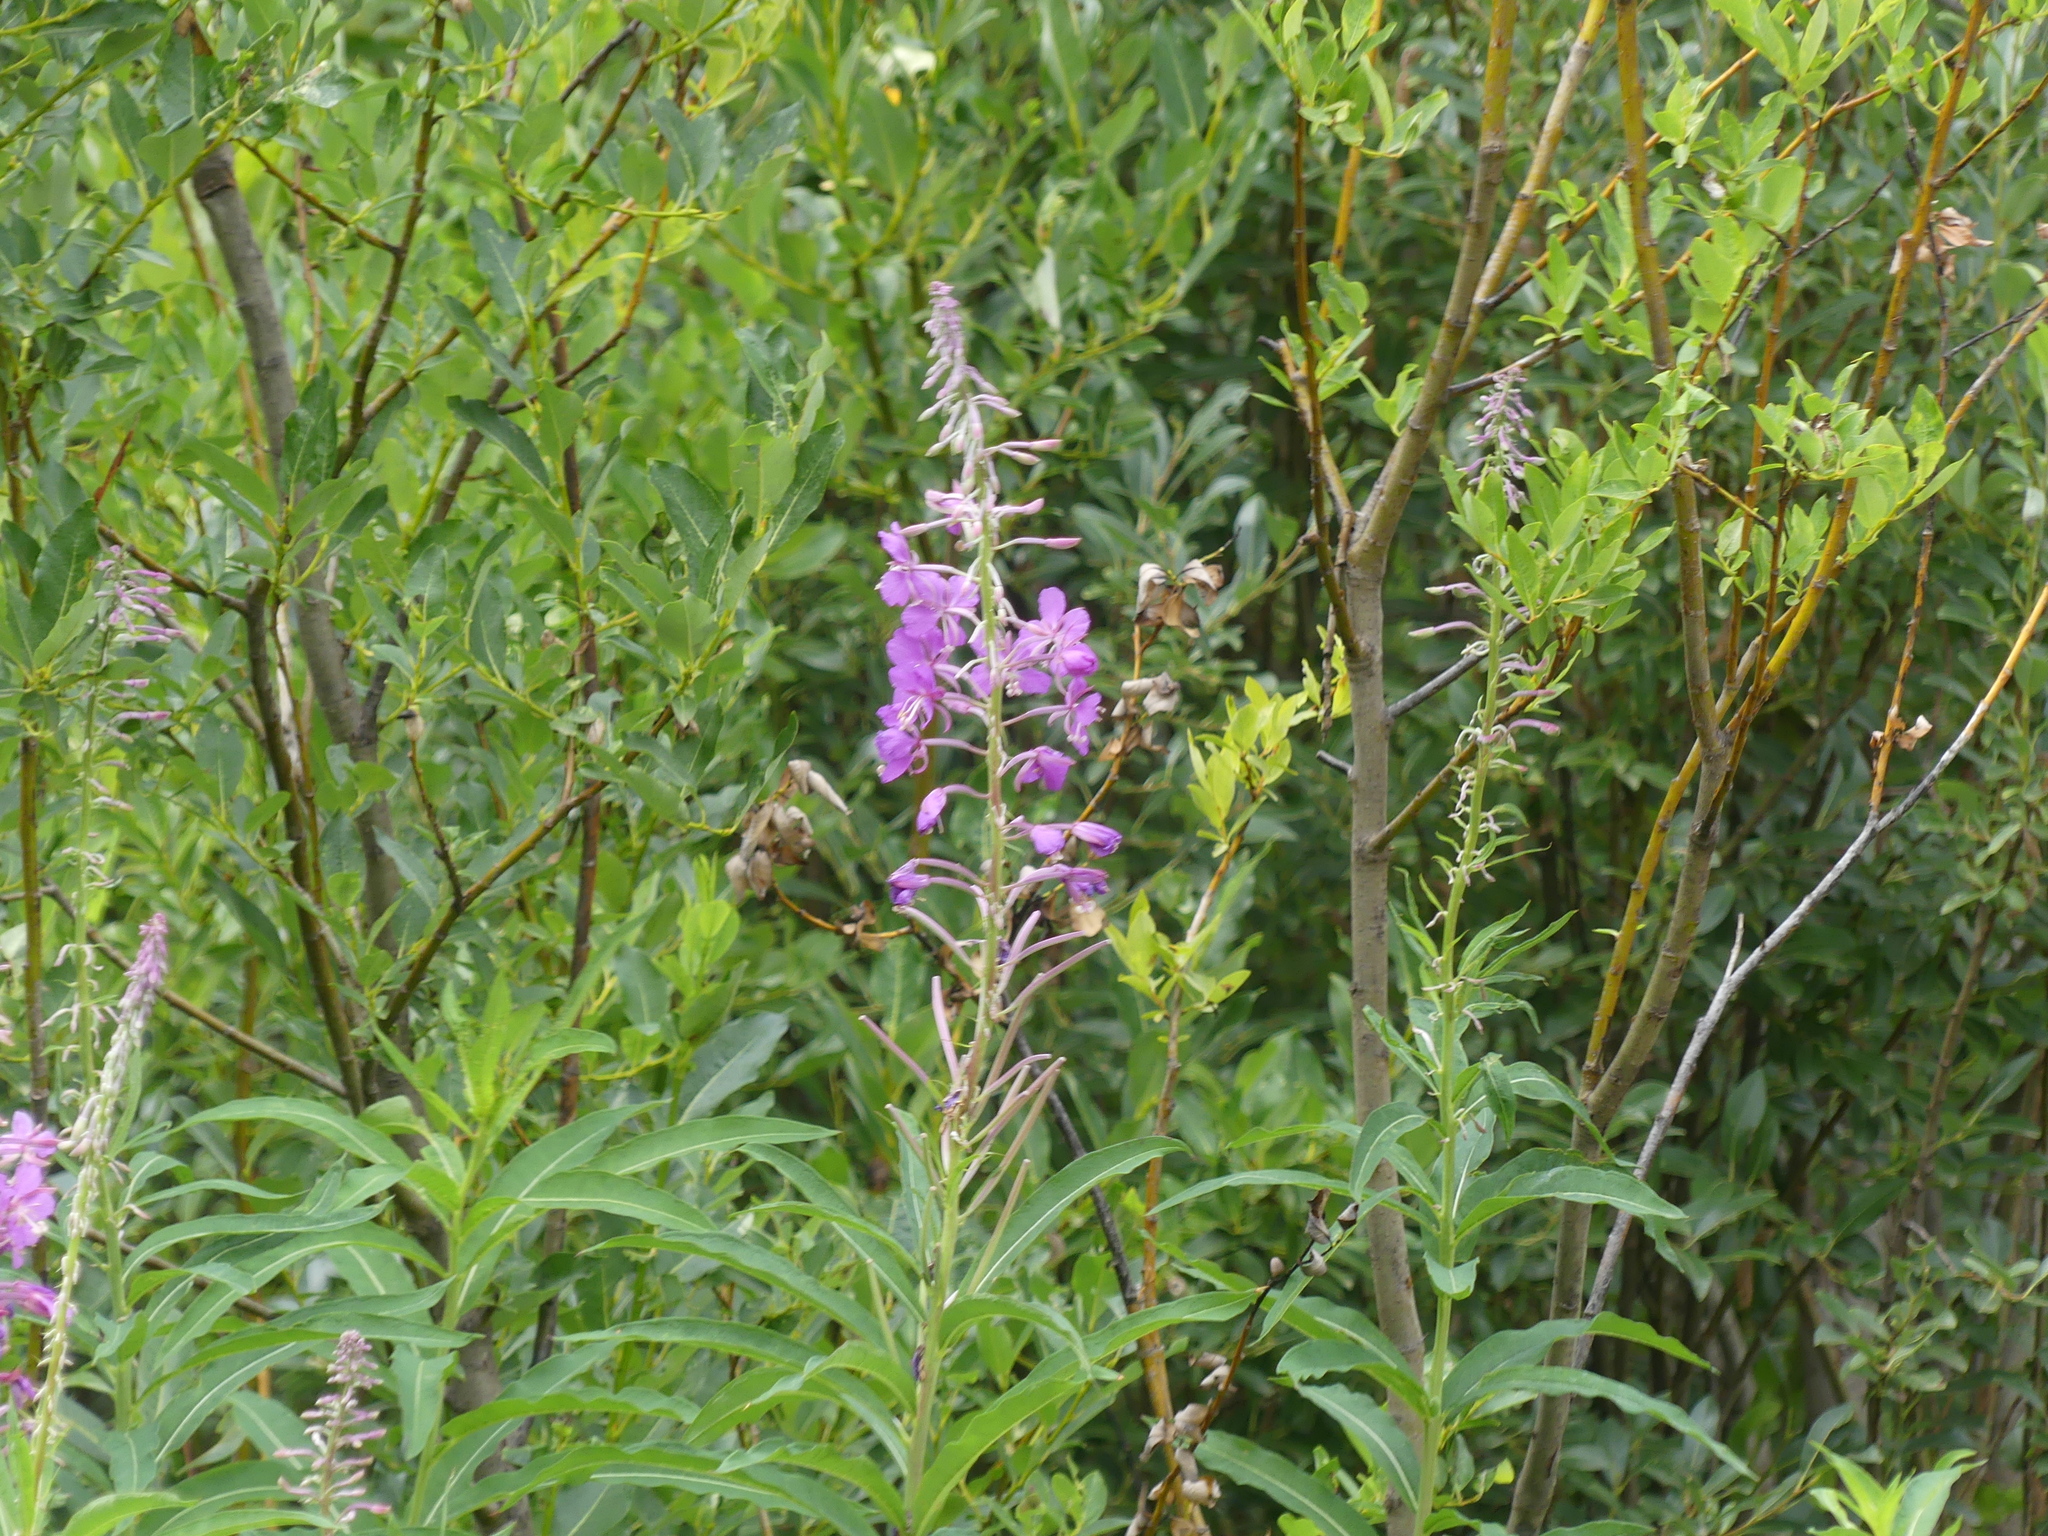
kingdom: Plantae
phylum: Tracheophyta
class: Magnoliopsida
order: Myrtales
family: Onagraceae
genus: Chamaenerion
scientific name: Chamaenerion angustifolium
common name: Fireweed
